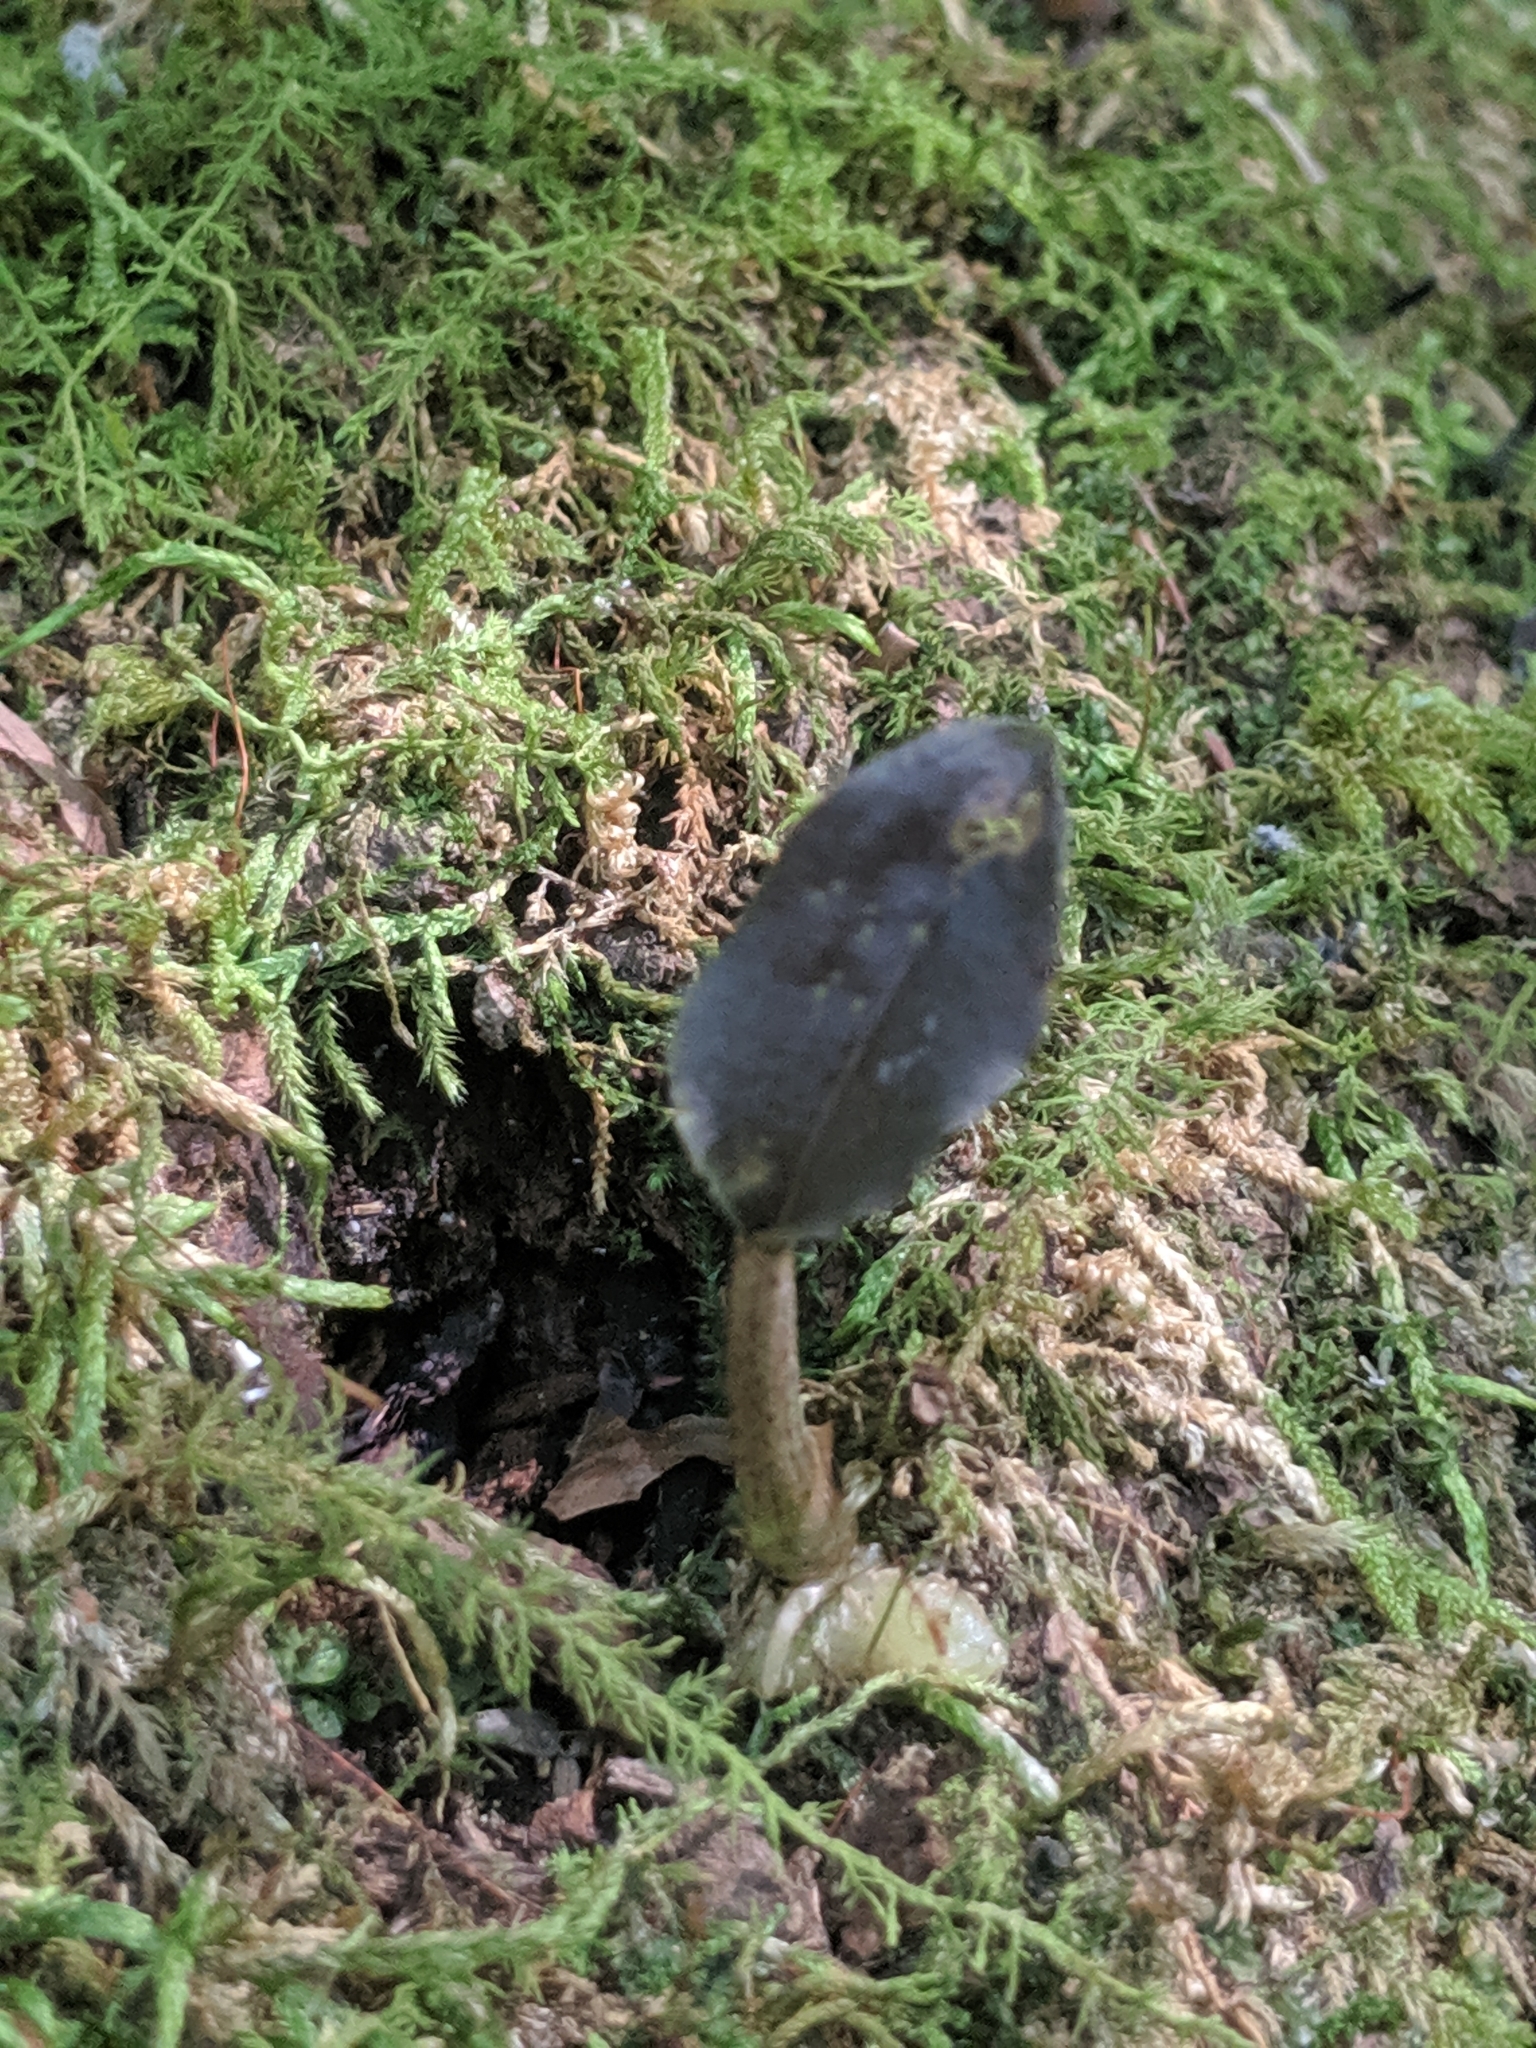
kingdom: Plantae
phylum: Tracheophyta
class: Liliopsida
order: Asparagales
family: Orchidaceae
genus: Tipularia
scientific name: Tipularia discolor
